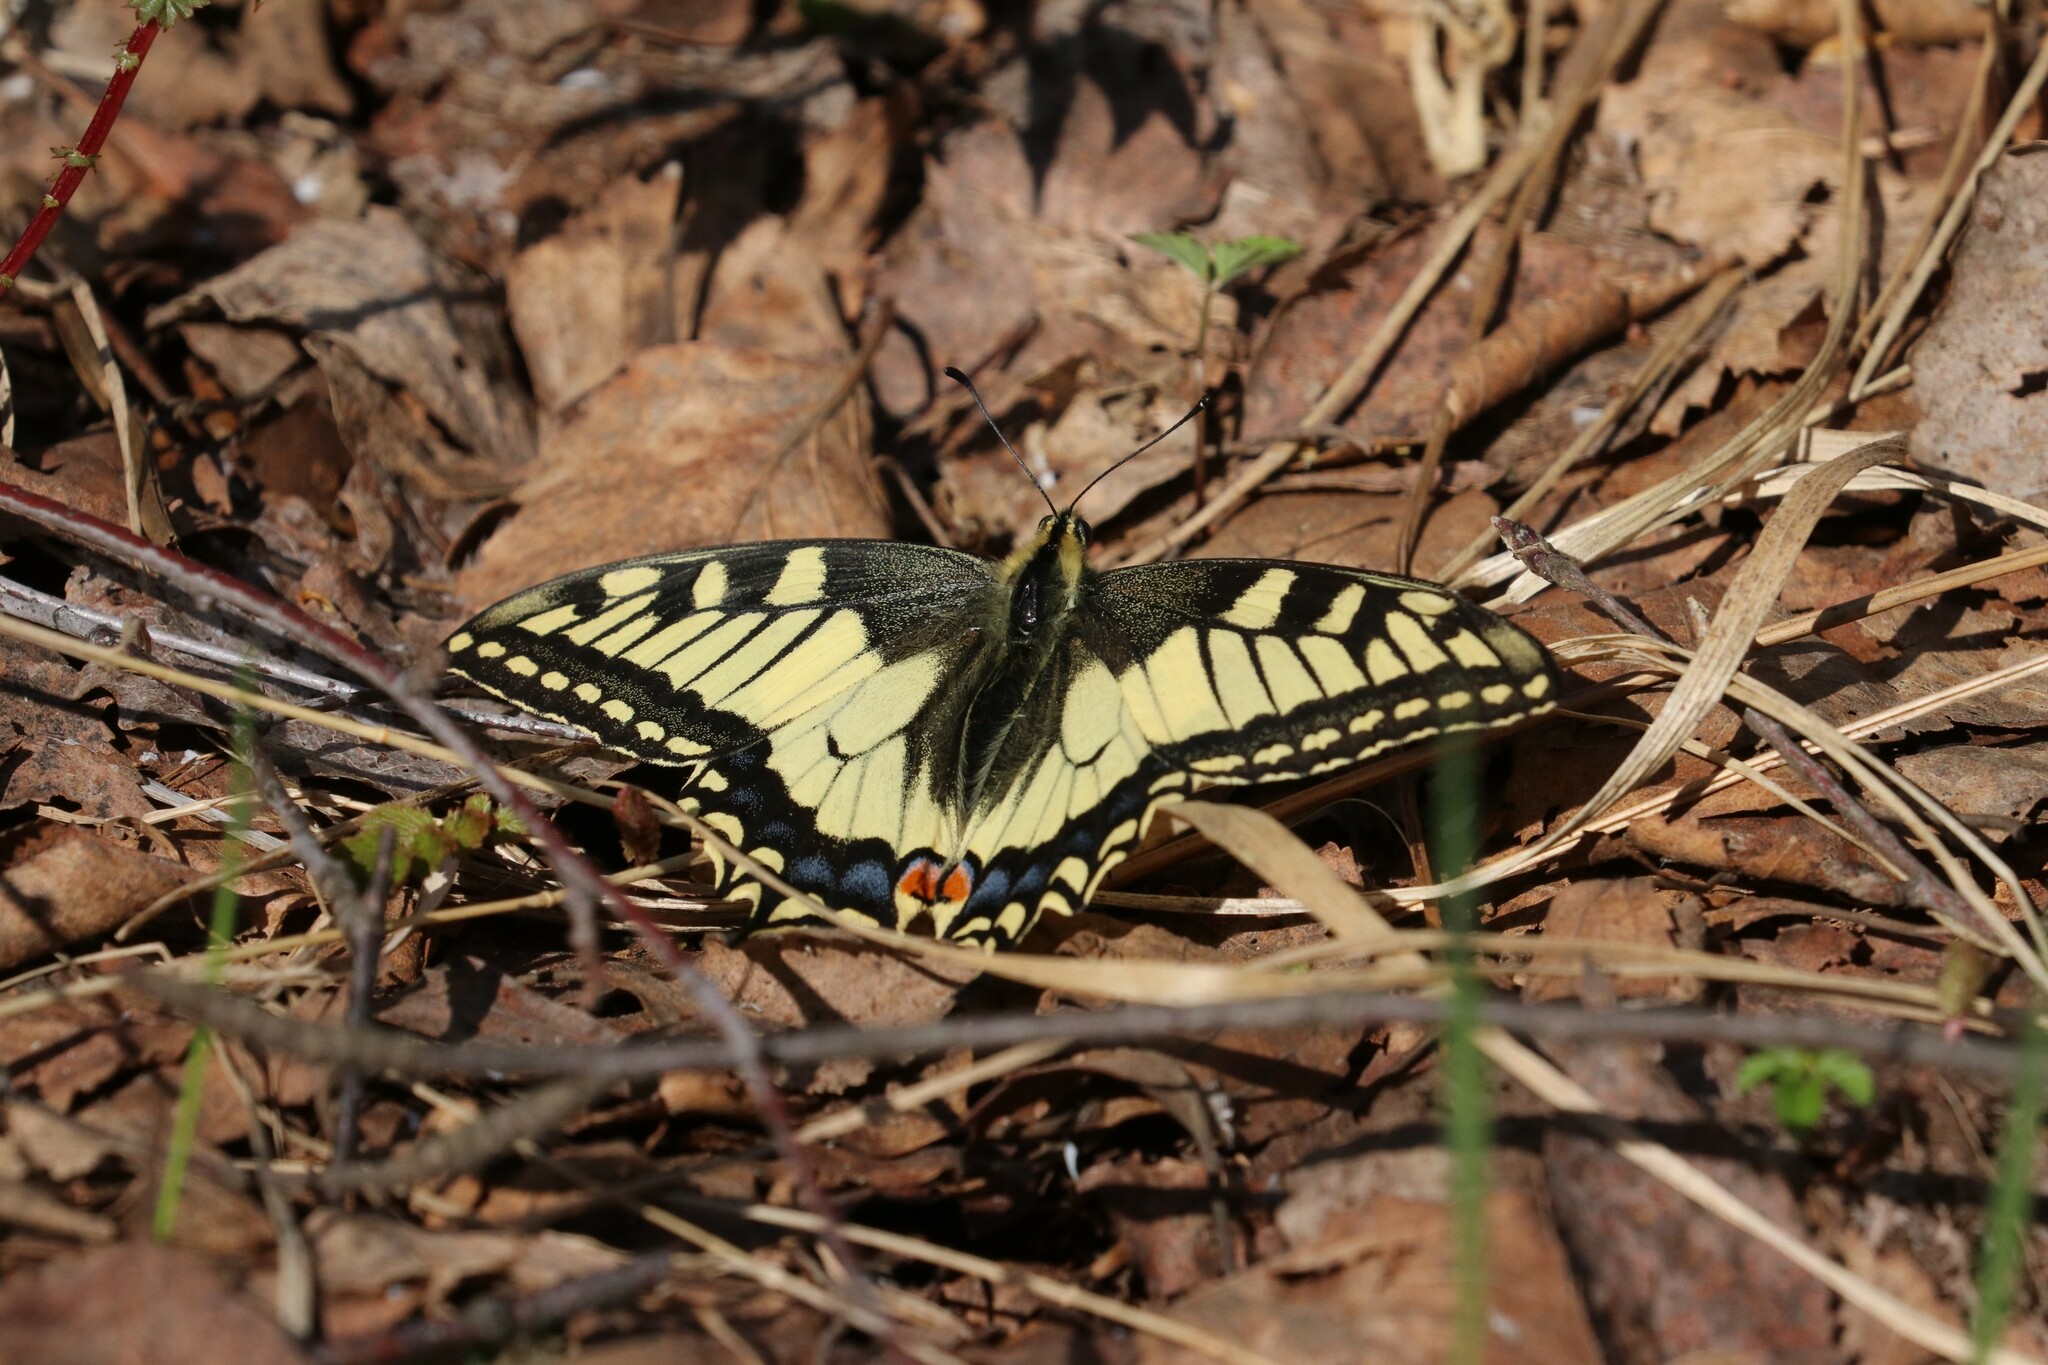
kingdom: Animalia
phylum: Arthropoda
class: Insecta
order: Lepidoptera
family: Papilionidae
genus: Papilio
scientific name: Papilio machaon
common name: Swallowtail
